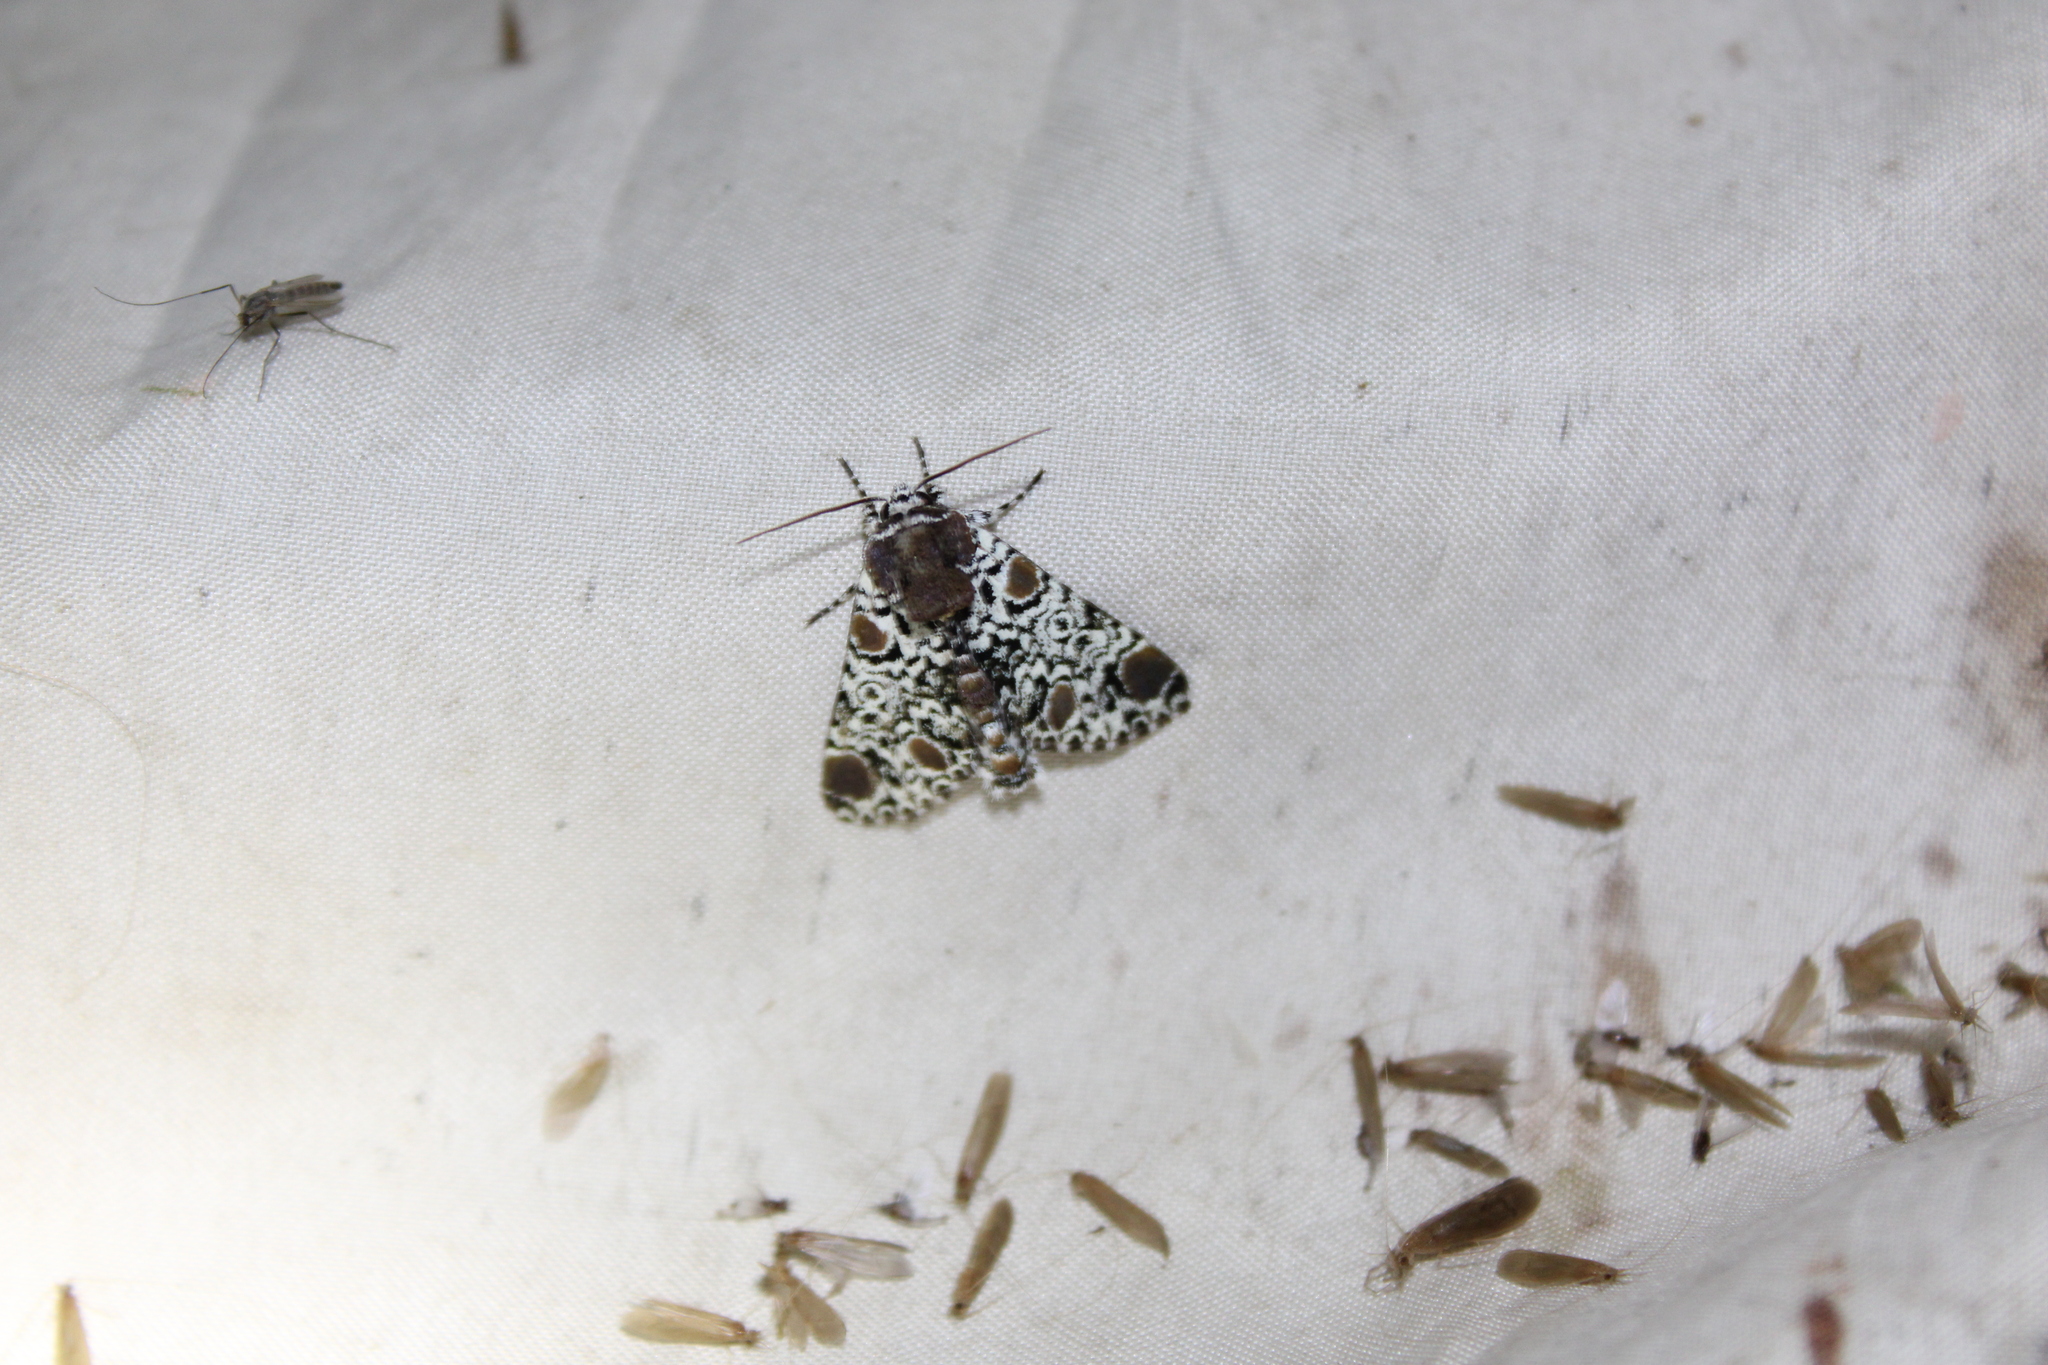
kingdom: Animalia
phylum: Arthropoda
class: Insecta
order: Lepidoptera
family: Noctuidae
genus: Harrisimemna
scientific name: Harrisimemna trisignata
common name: Harris threespot
